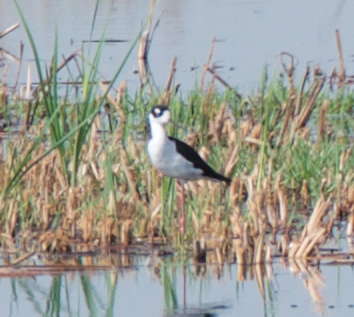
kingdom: Animalia
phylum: Chordata
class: Aves
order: Charadriiformes
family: Recurvirostridae
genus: Himantopus
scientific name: Himantopus mexicanus
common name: Black-necked stilt
